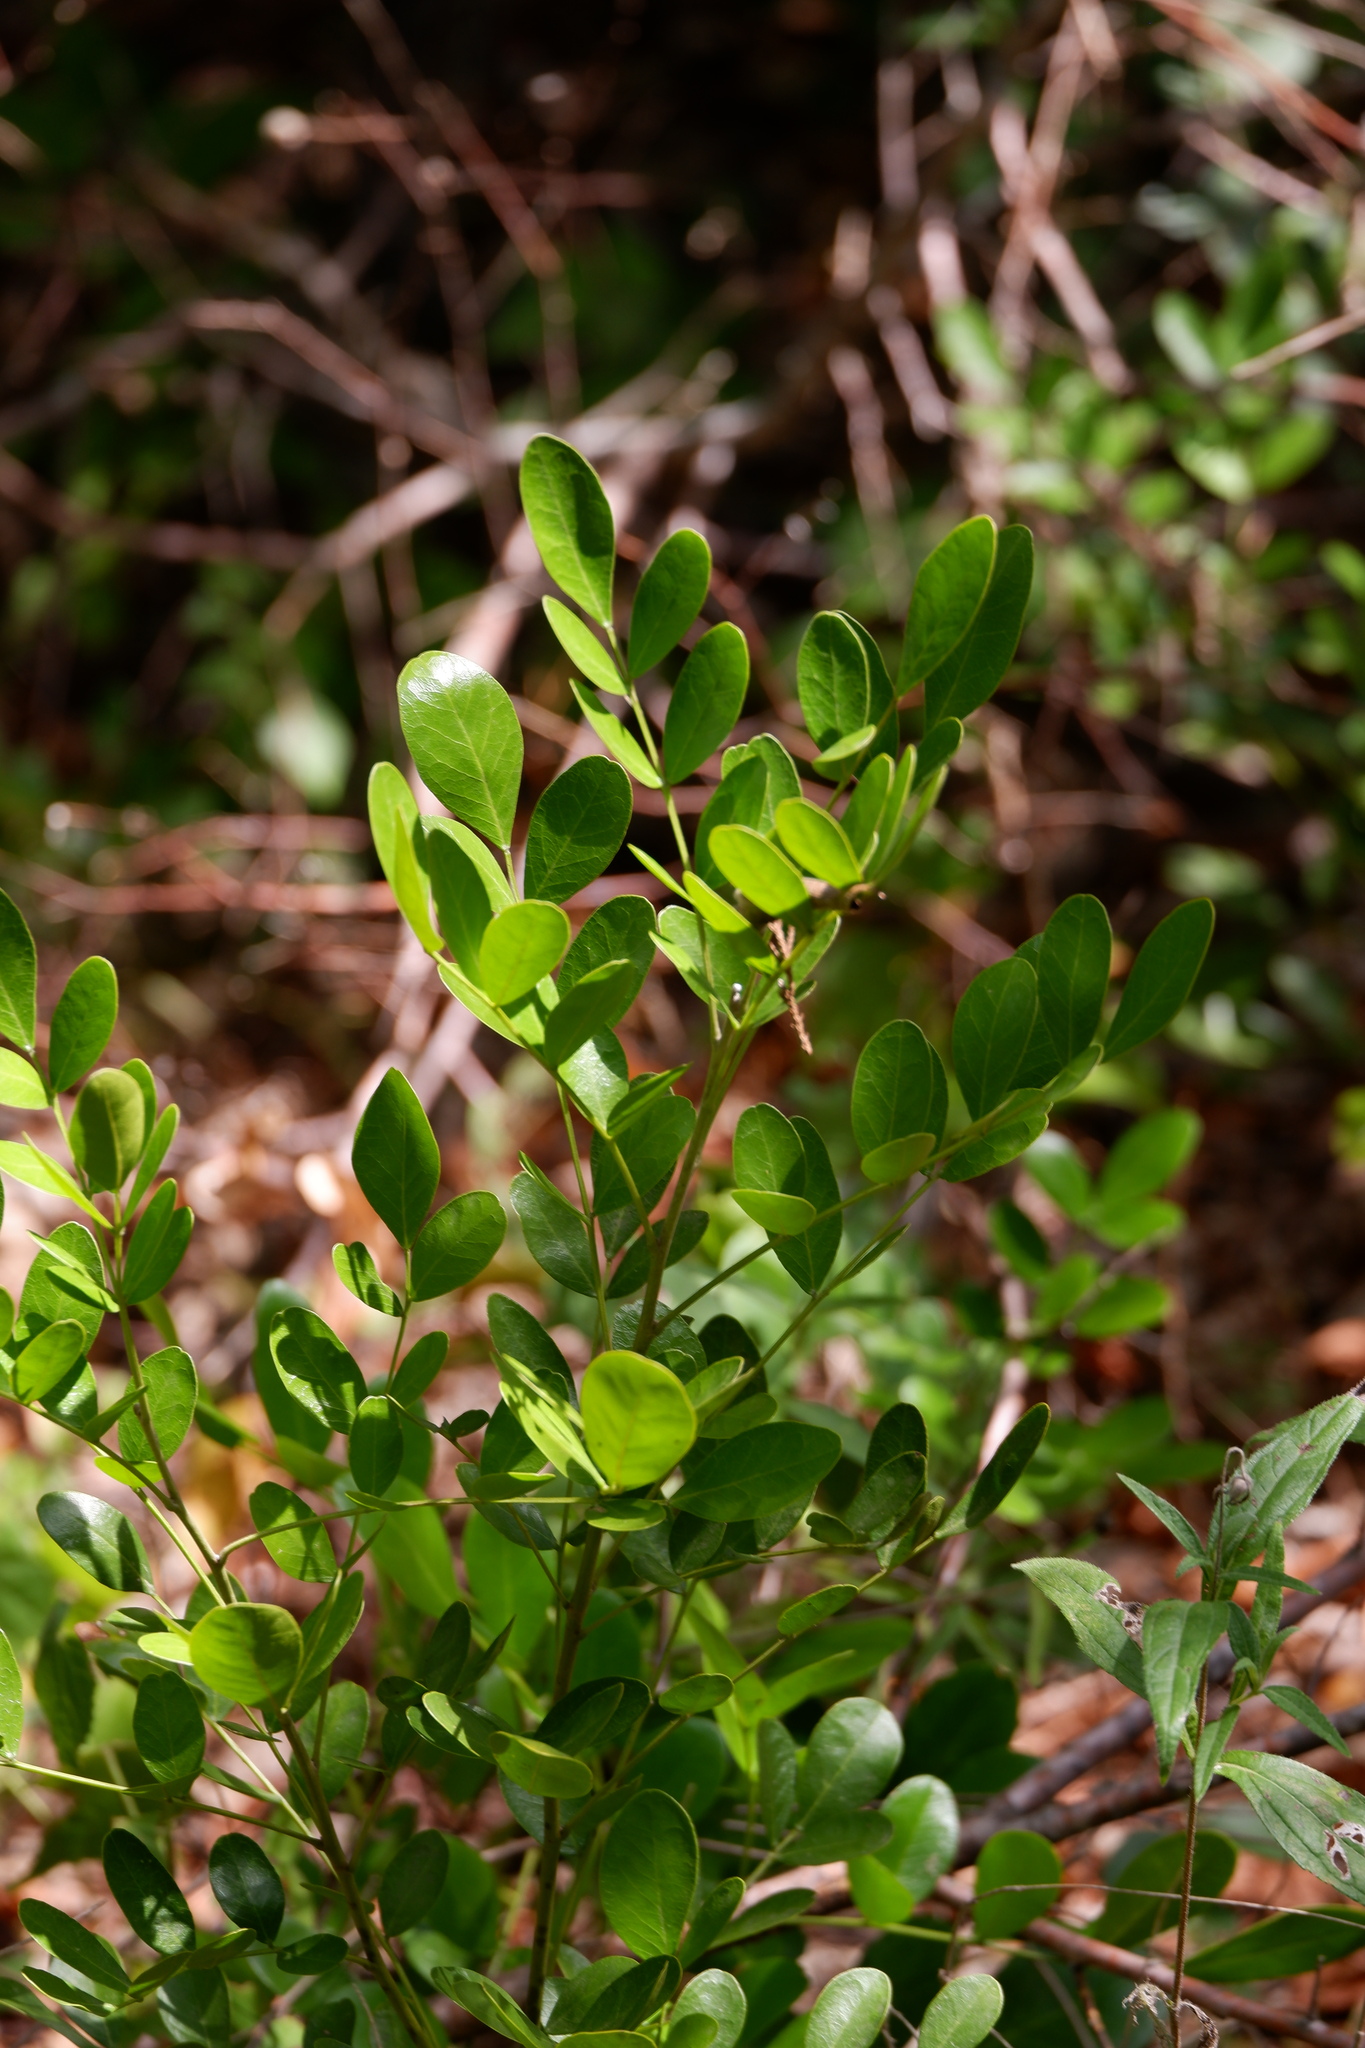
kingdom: Plantae
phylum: Tracheophyta
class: Magnoliopsida
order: Fabales
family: Fabaceae
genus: Dermatophyllum
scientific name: Dermatophyllum secundiflorum
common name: Texas-mountain-laurel
